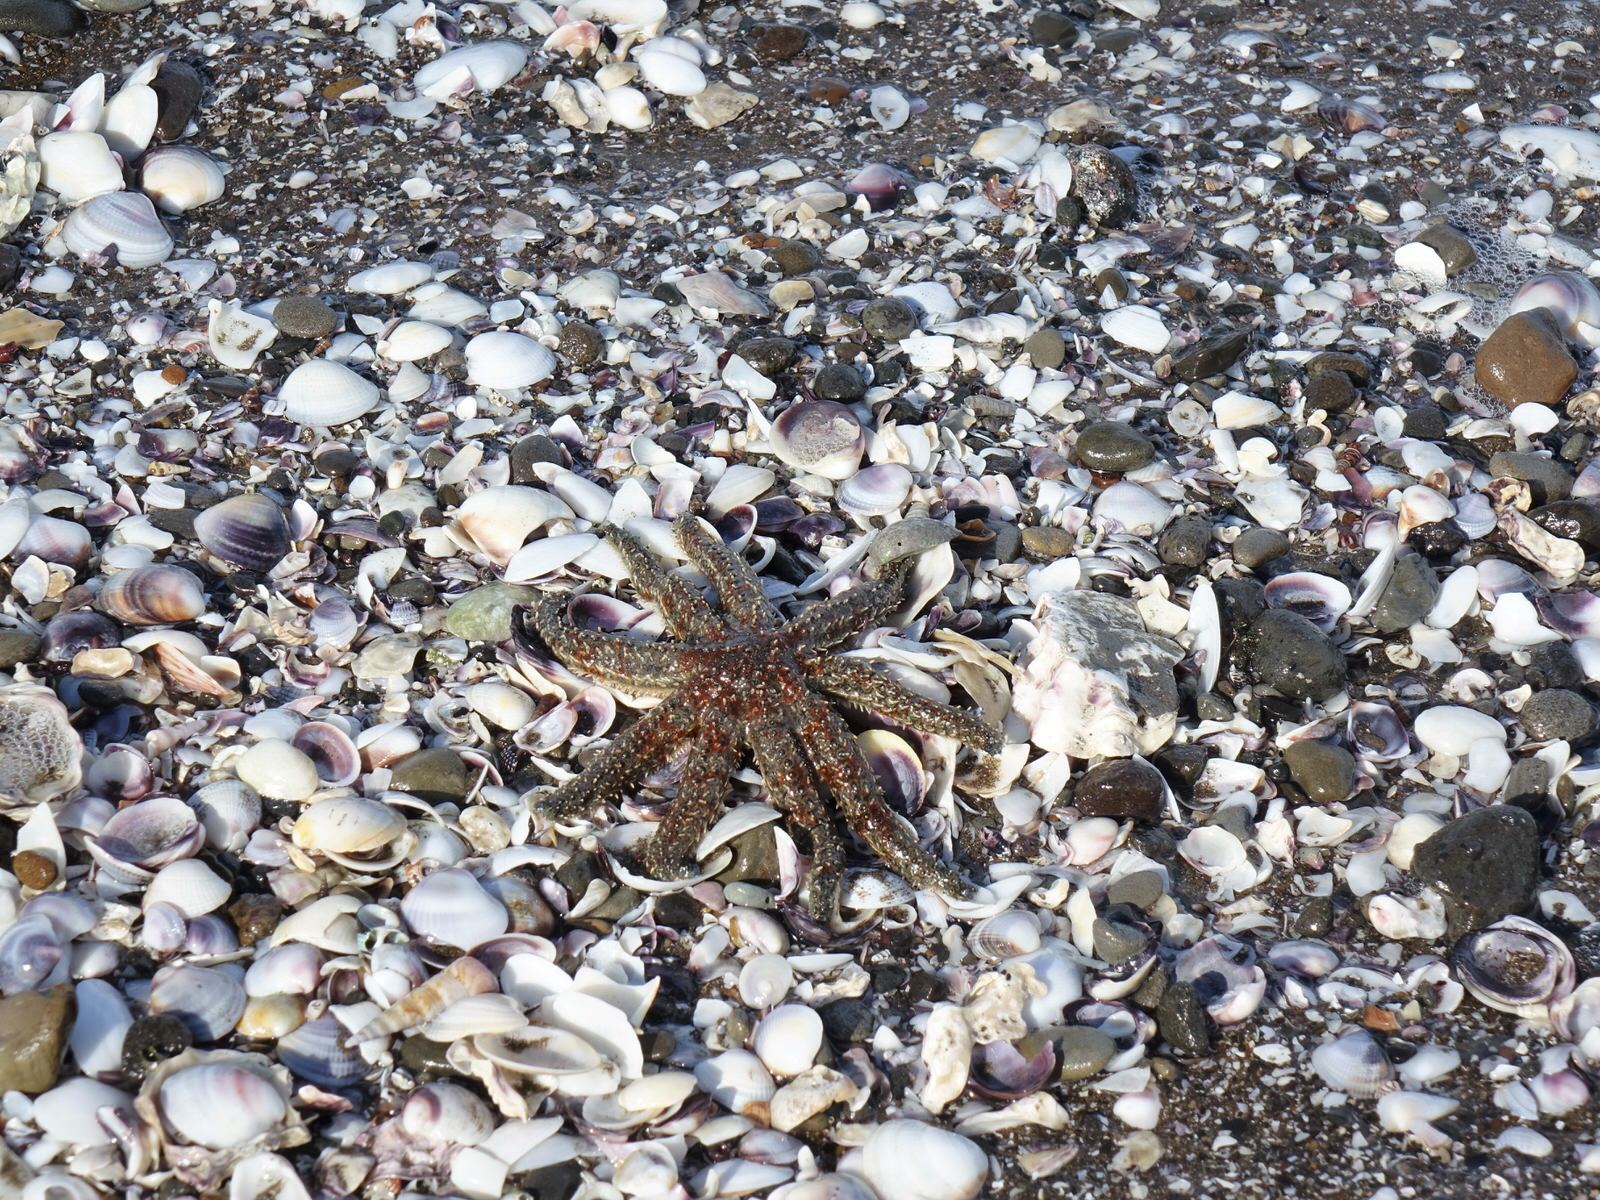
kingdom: Animalia
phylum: Echinodermata
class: Asteroidea
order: Forcipulatida
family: Asteriidae
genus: Coscinasterias
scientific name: Coscinasterias muricata
